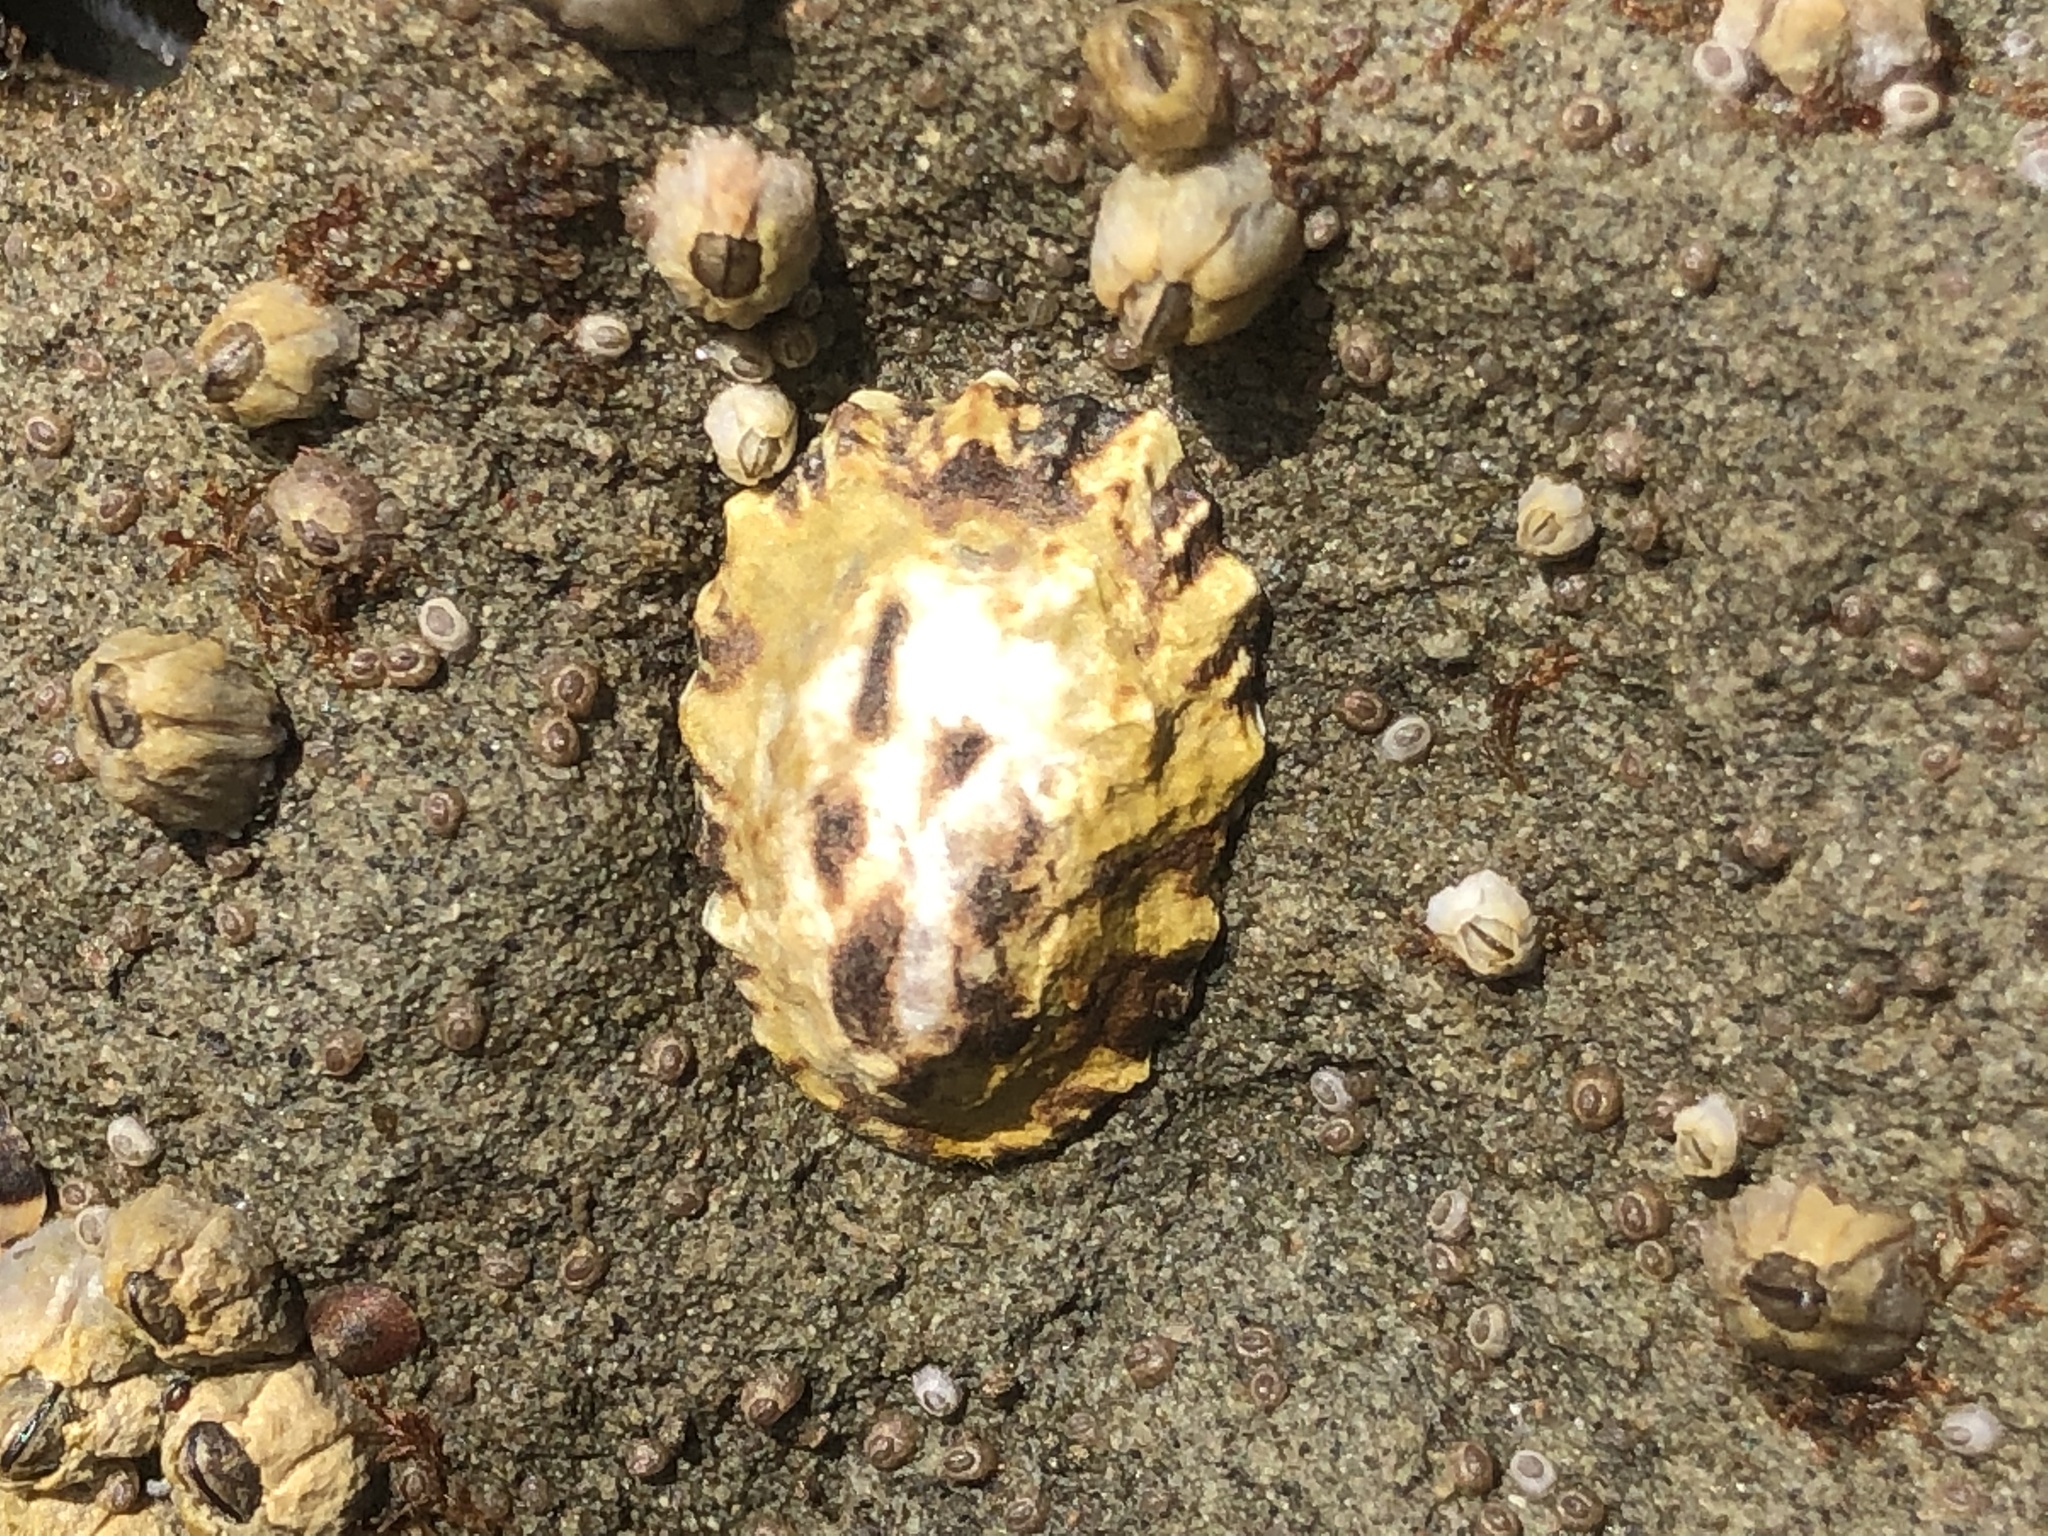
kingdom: Animalia
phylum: Mollusca
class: Gastropoda
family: Lottiidae
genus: Lottia
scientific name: Lottia scabra
